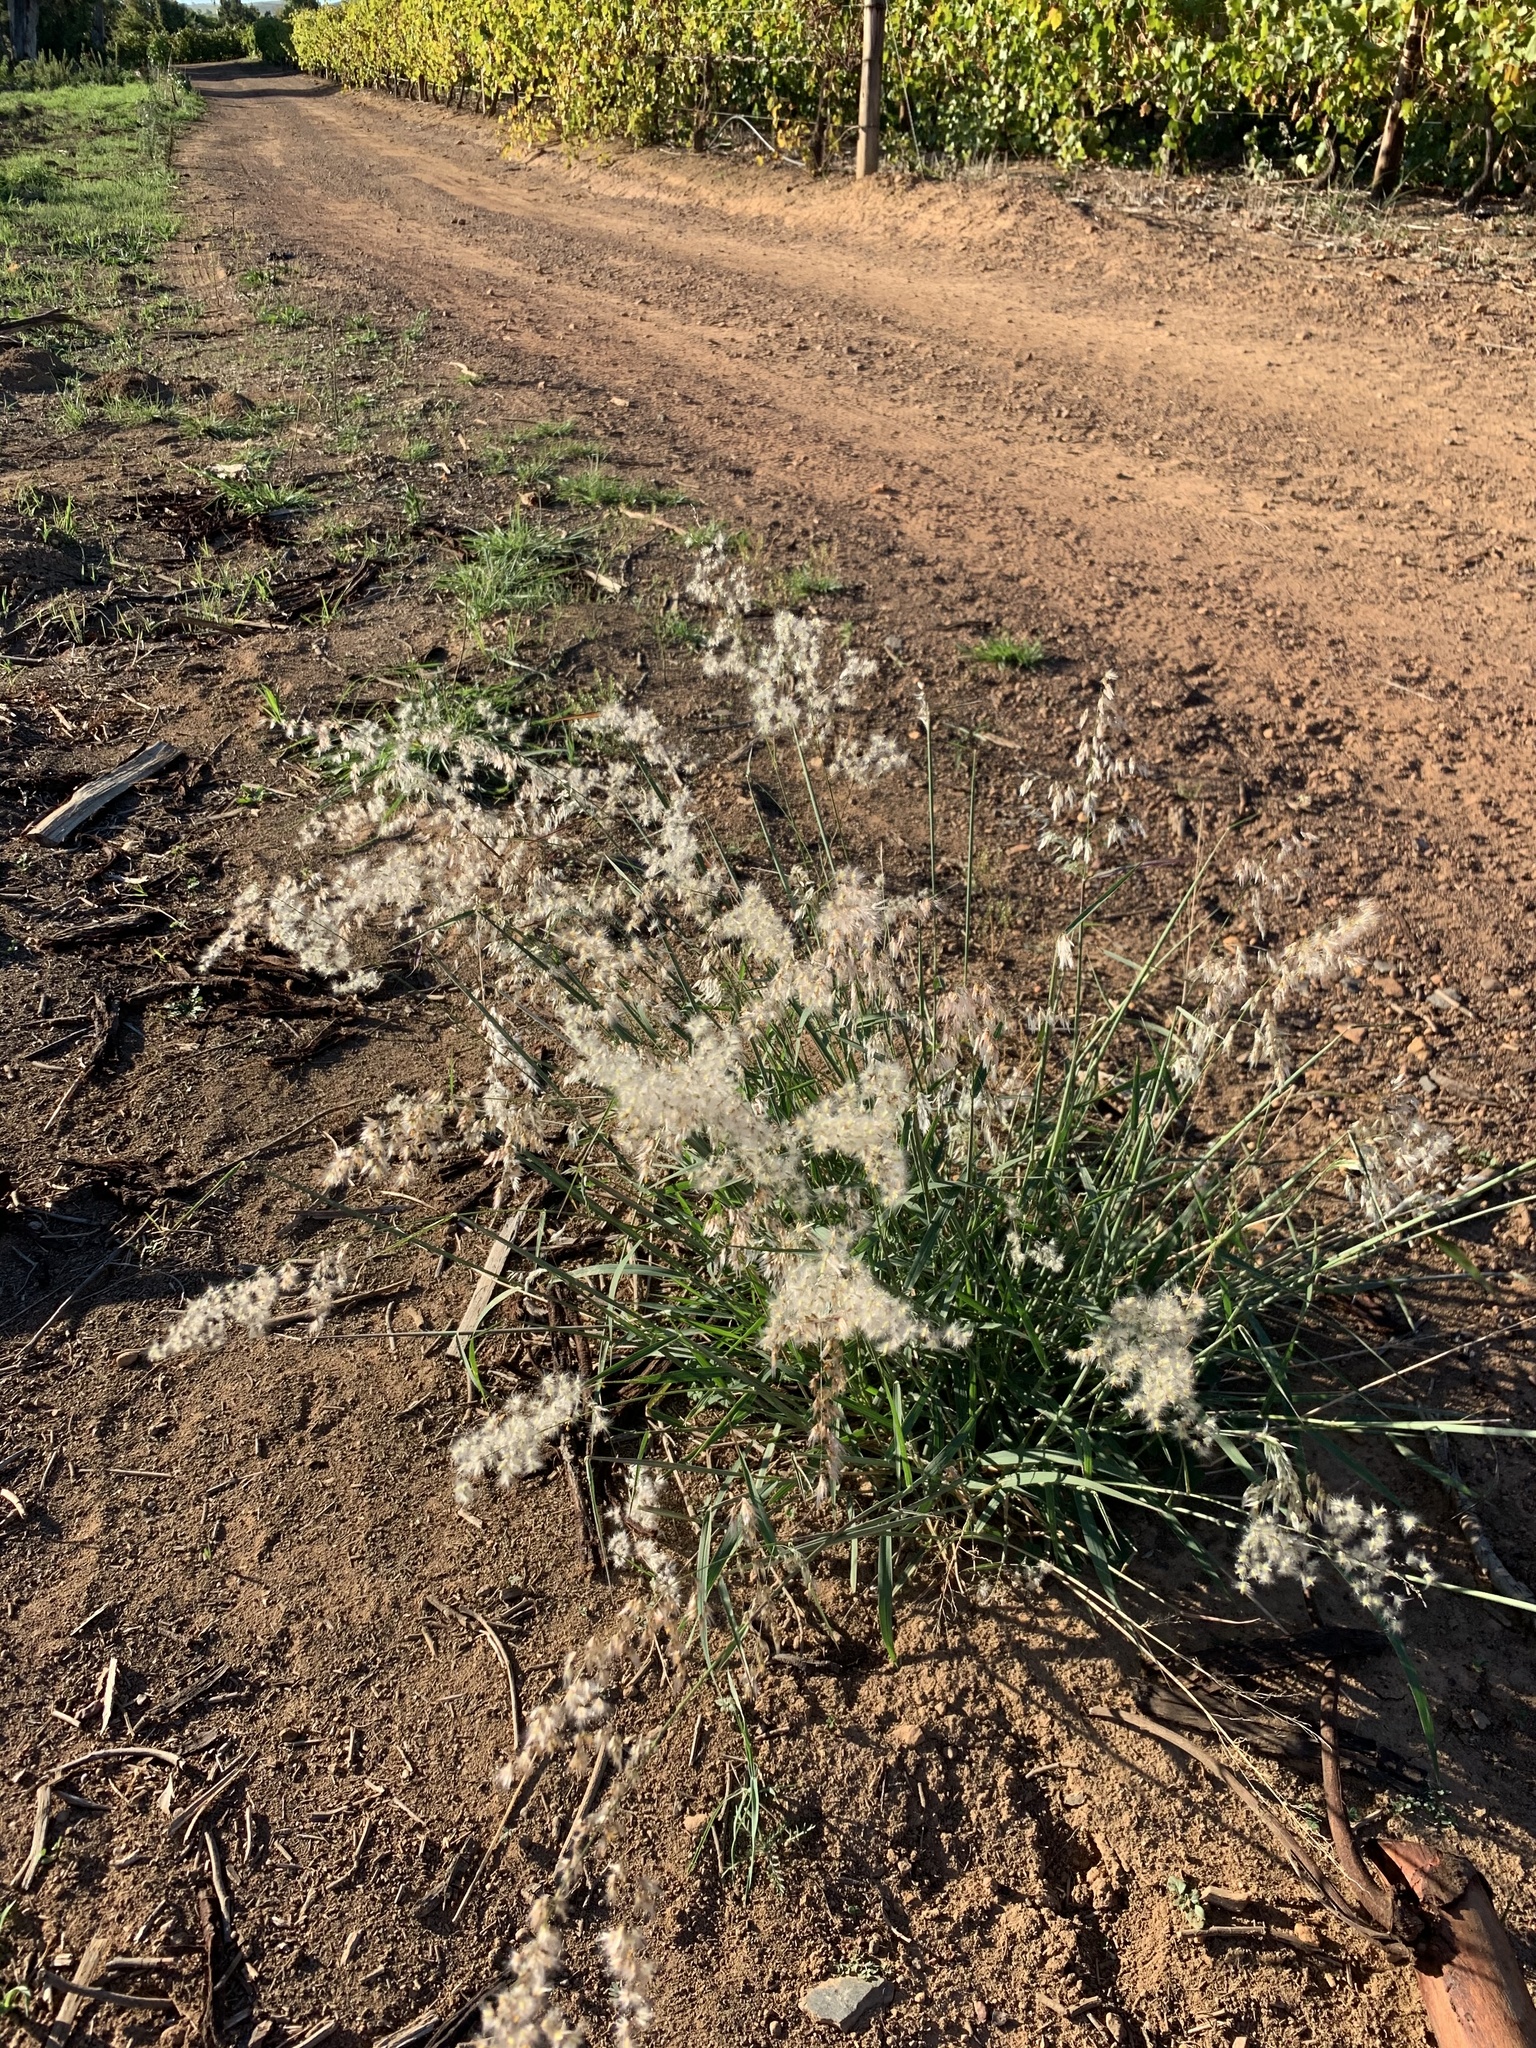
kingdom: Plantae
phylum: Tracheophyta
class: Liliopsida
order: Poales
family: Poaceae
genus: Melinis
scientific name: Melinis repens
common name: Rose natal grass
